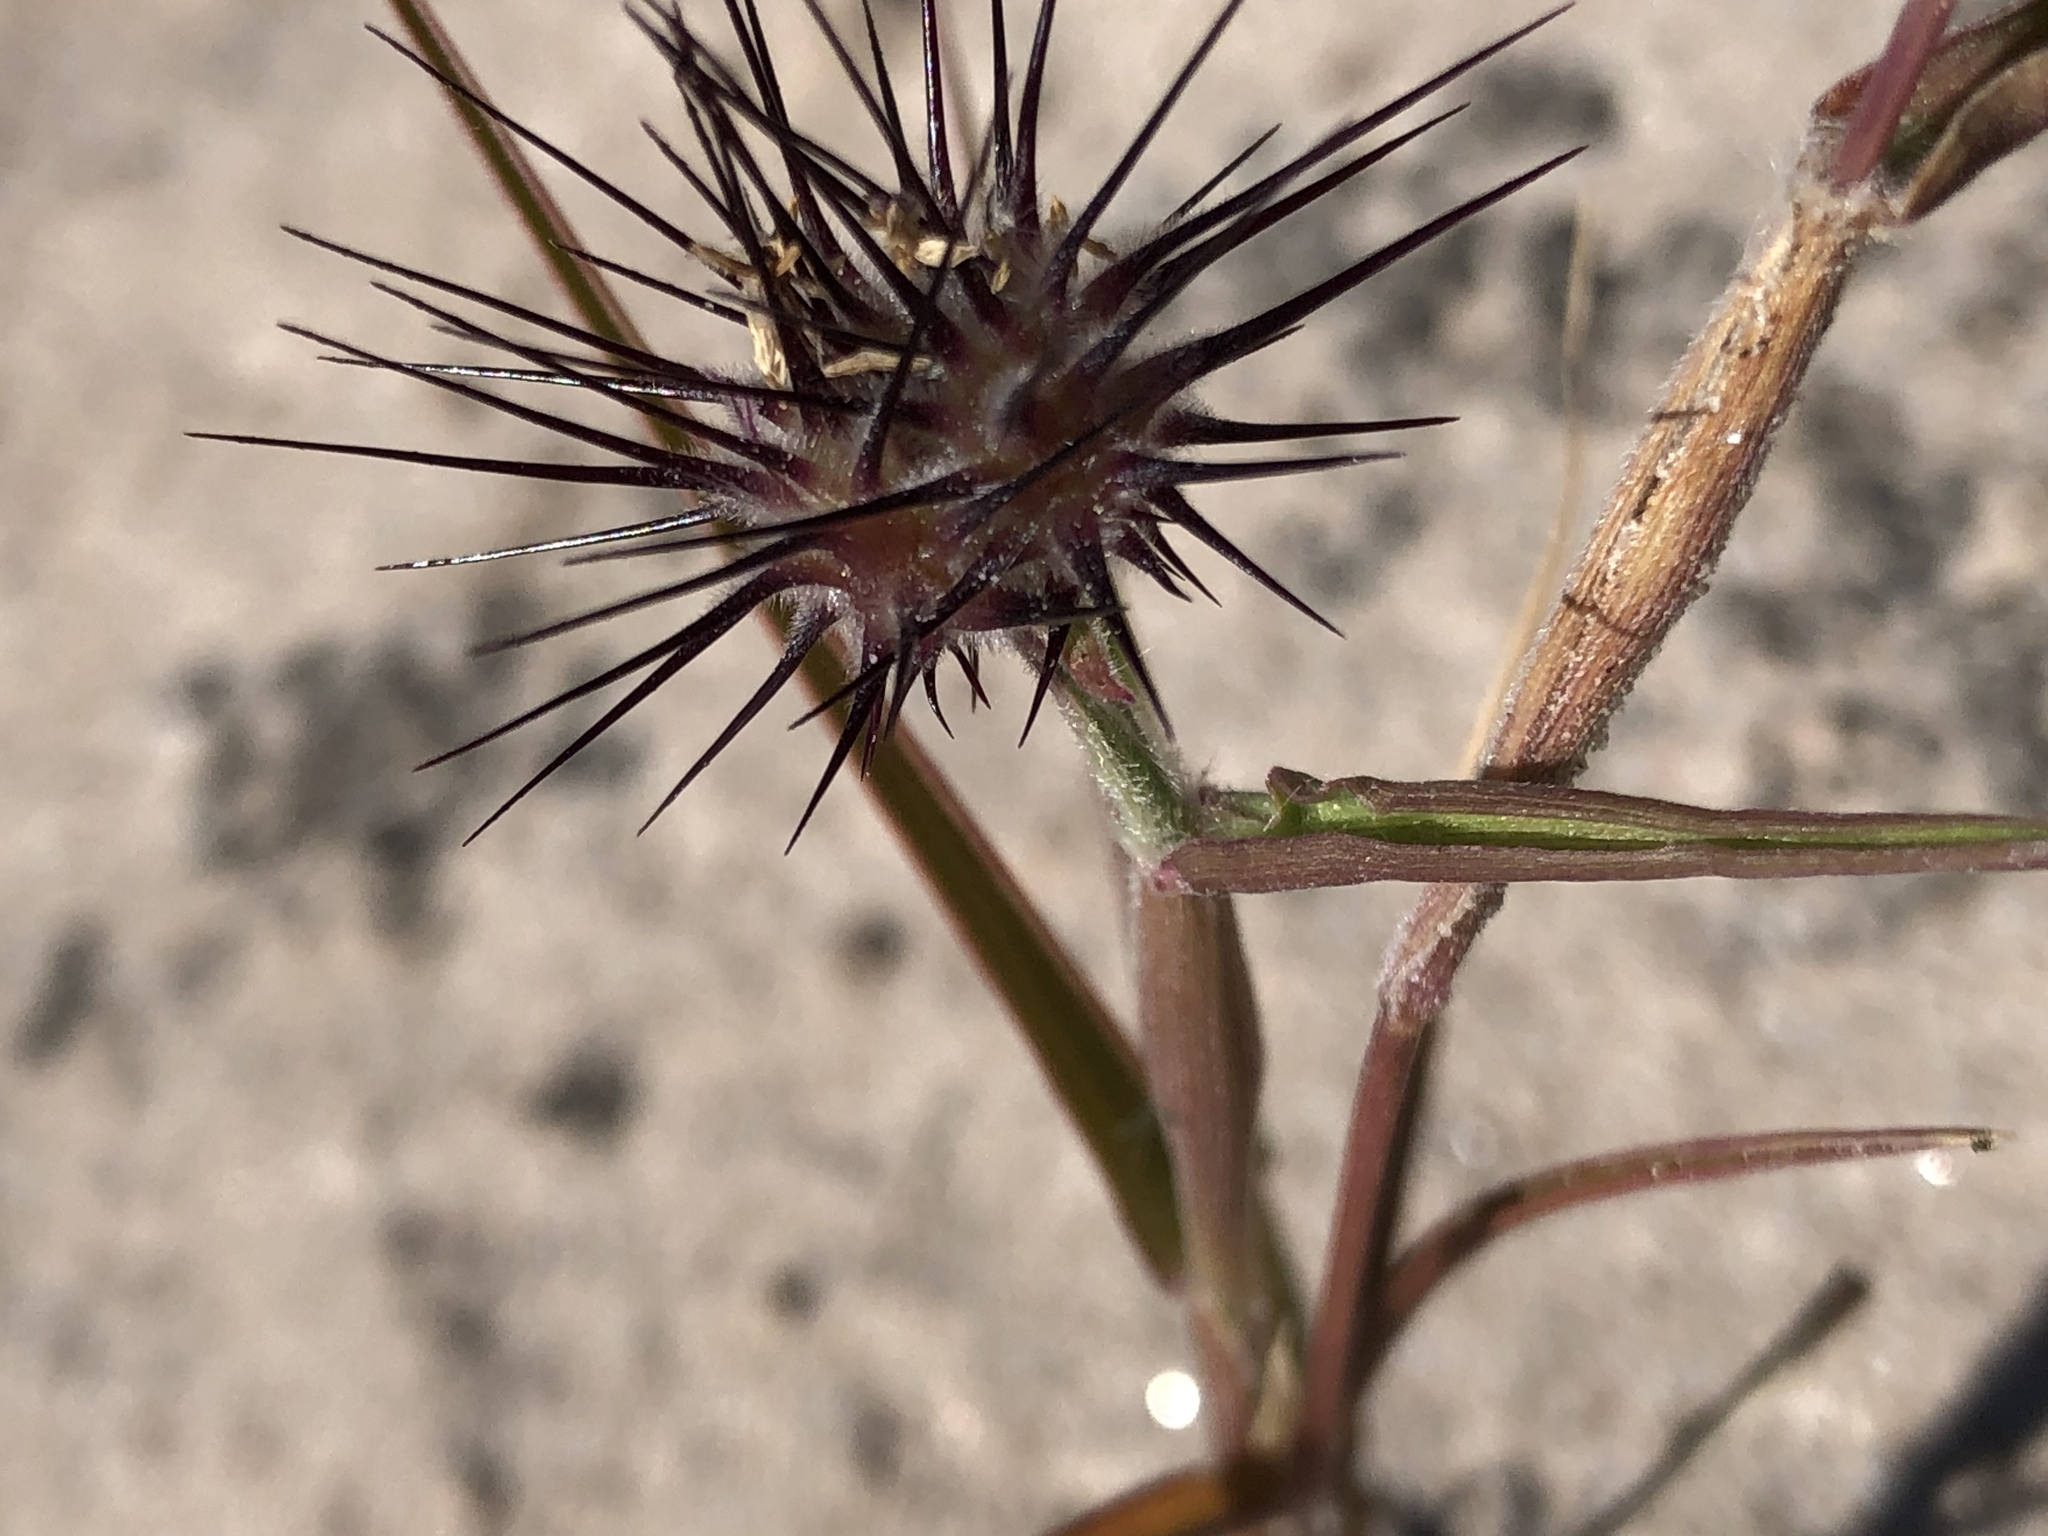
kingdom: Plantae
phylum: Tracheophyta
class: Liliopsida
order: Poales
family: Poaceae
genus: Cenchrus
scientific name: Cenchrus palmeri
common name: Giant sandbur
